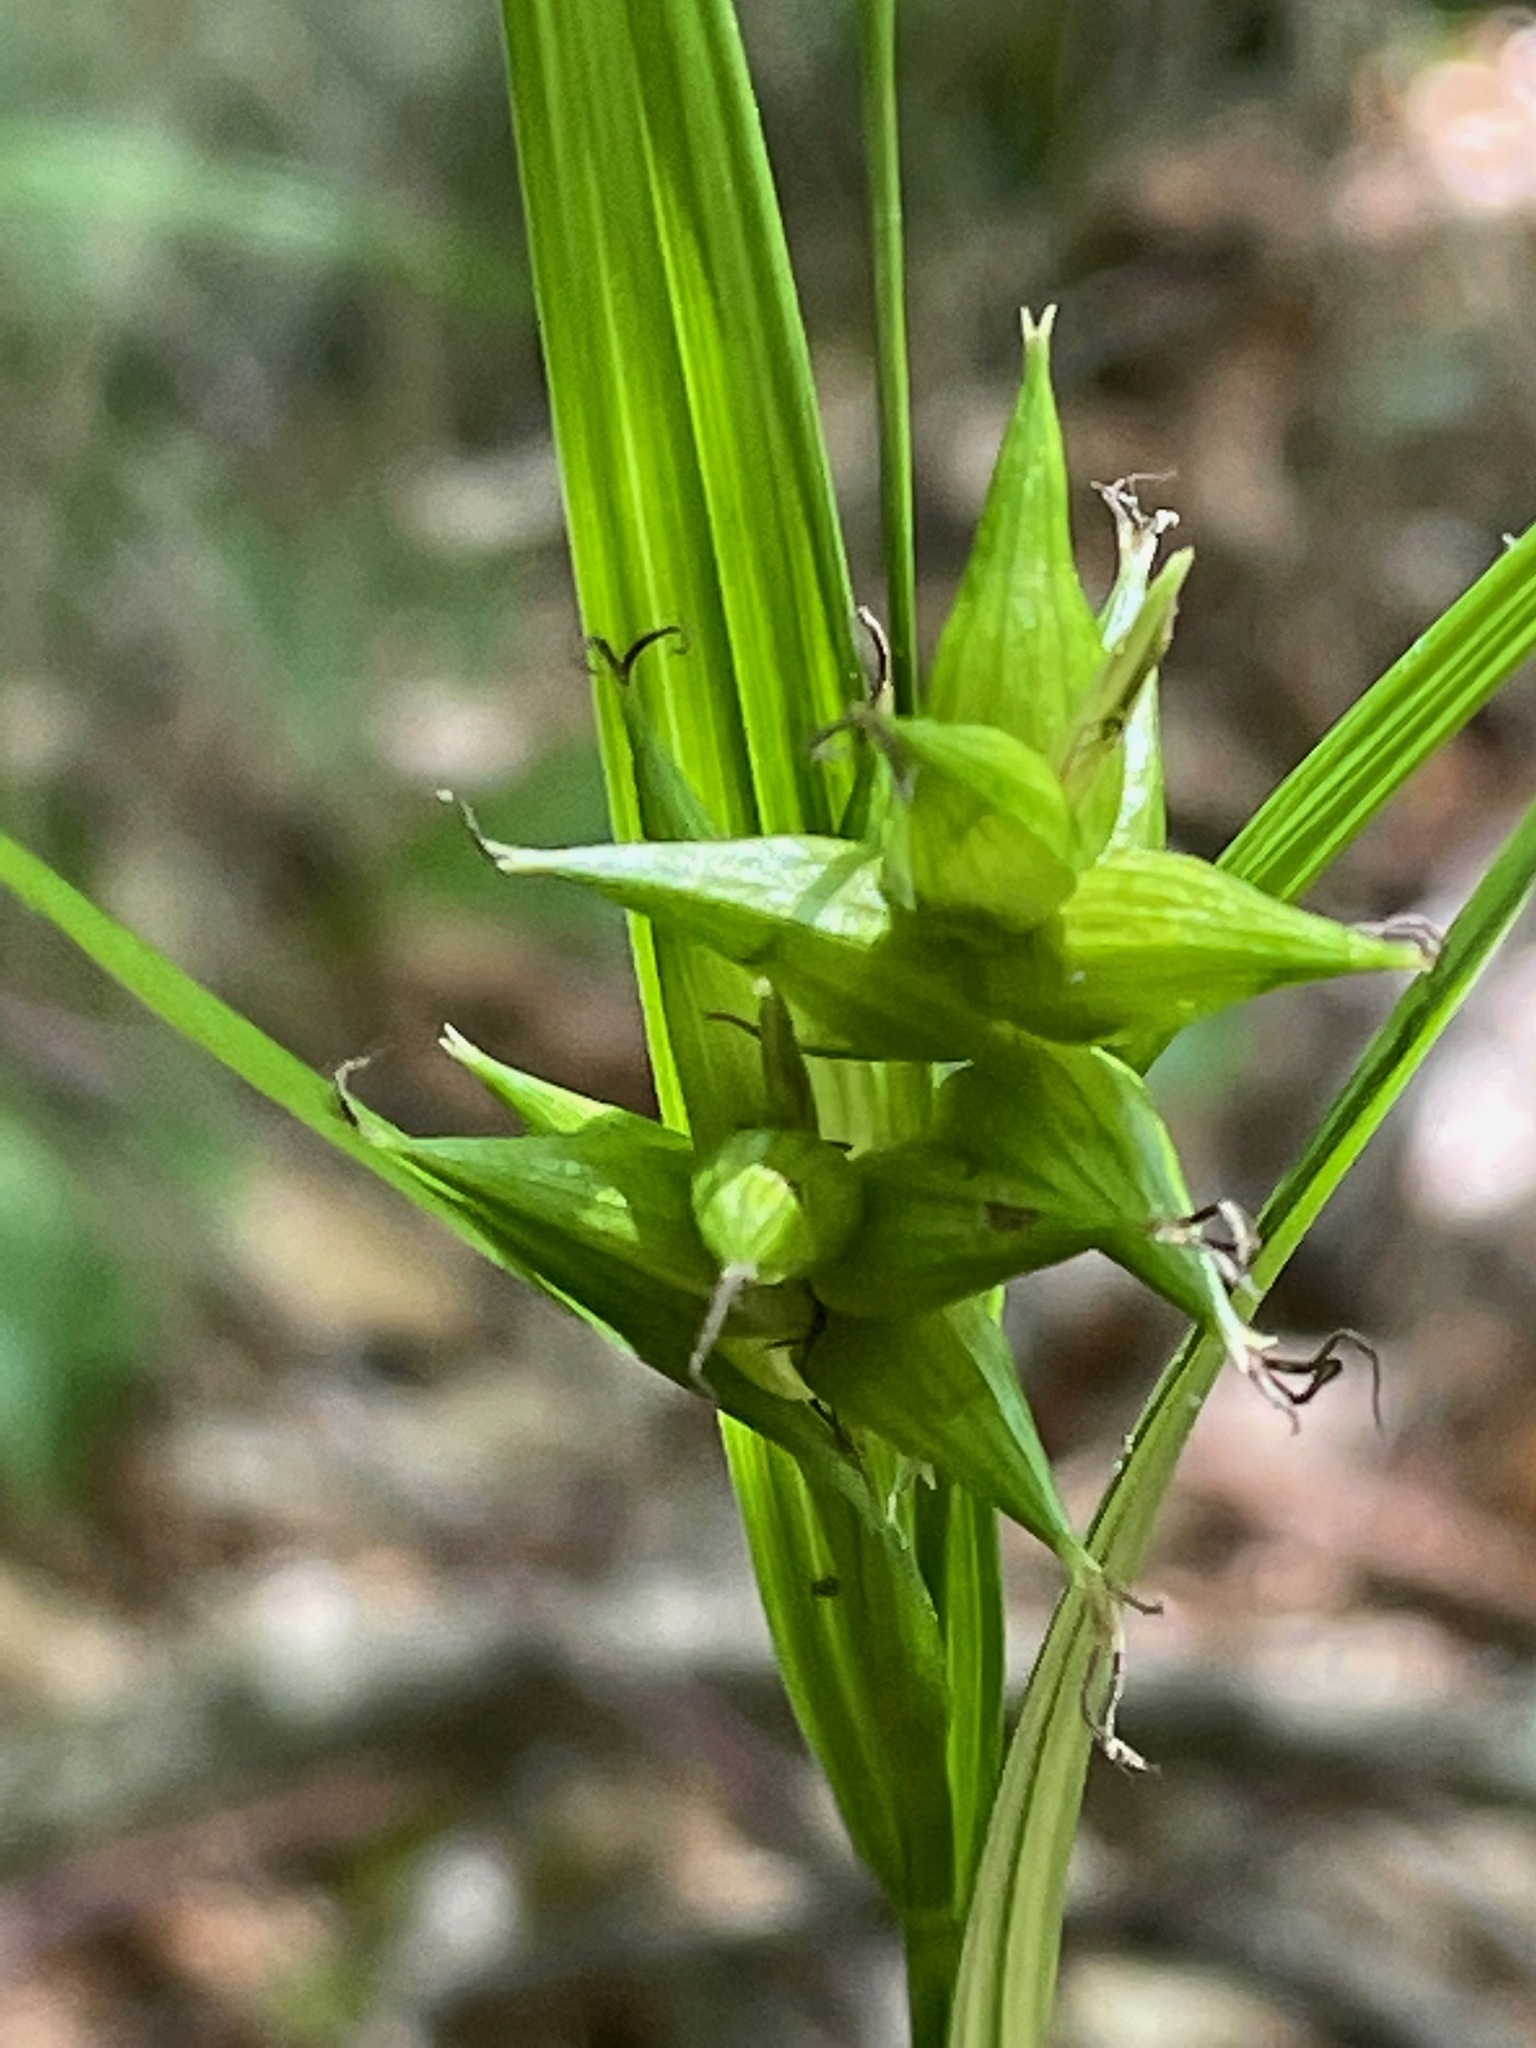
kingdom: Plantae
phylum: Tracheophyta
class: Liliopsida
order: Poales
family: Cyperaceae
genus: Carex
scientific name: Carex intumescens
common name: Greater bladder sedge
